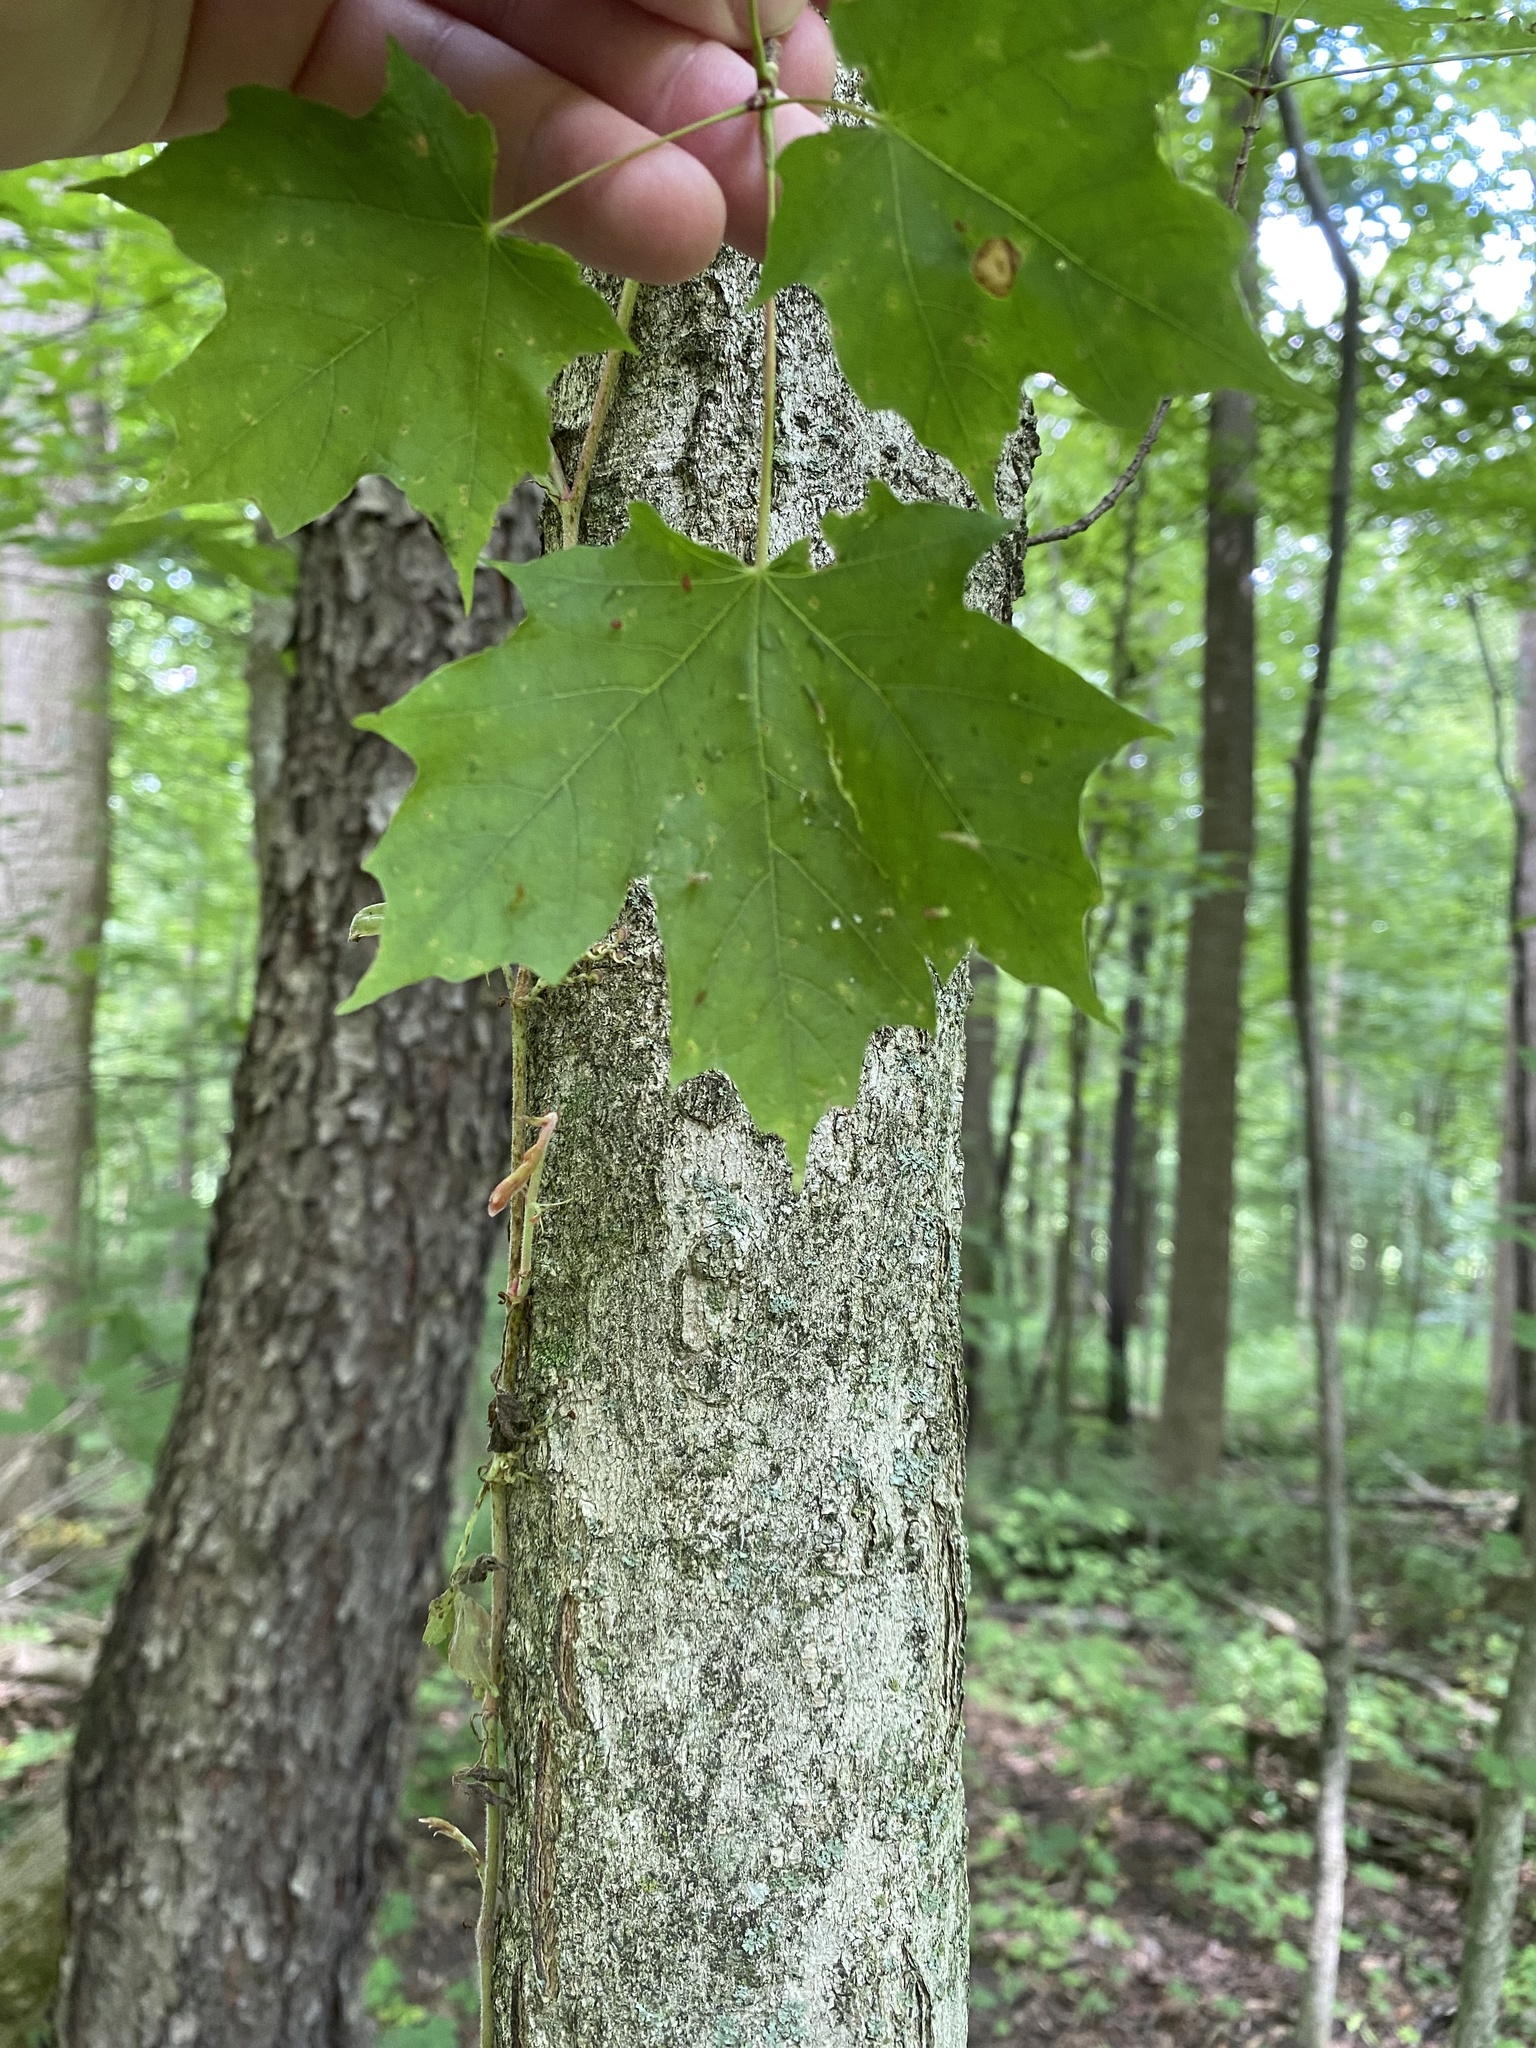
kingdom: Plantae
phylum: Tracheophyta
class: Magnoliopsida
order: Sapindales
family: Sapindaceae
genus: Acer
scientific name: Acer saccharum
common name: Sugar maple
